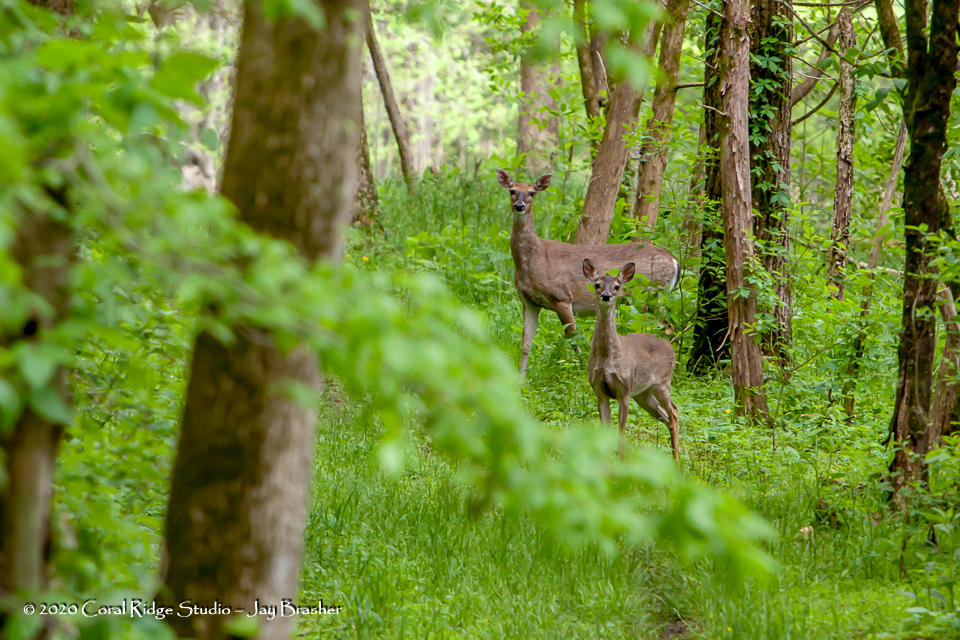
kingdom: Animalia
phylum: Chordata
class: Mammalia
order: Artiodactyla
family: Cervidae
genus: Odocoileus
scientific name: Odocoileus virginianus
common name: White-tailed deer
